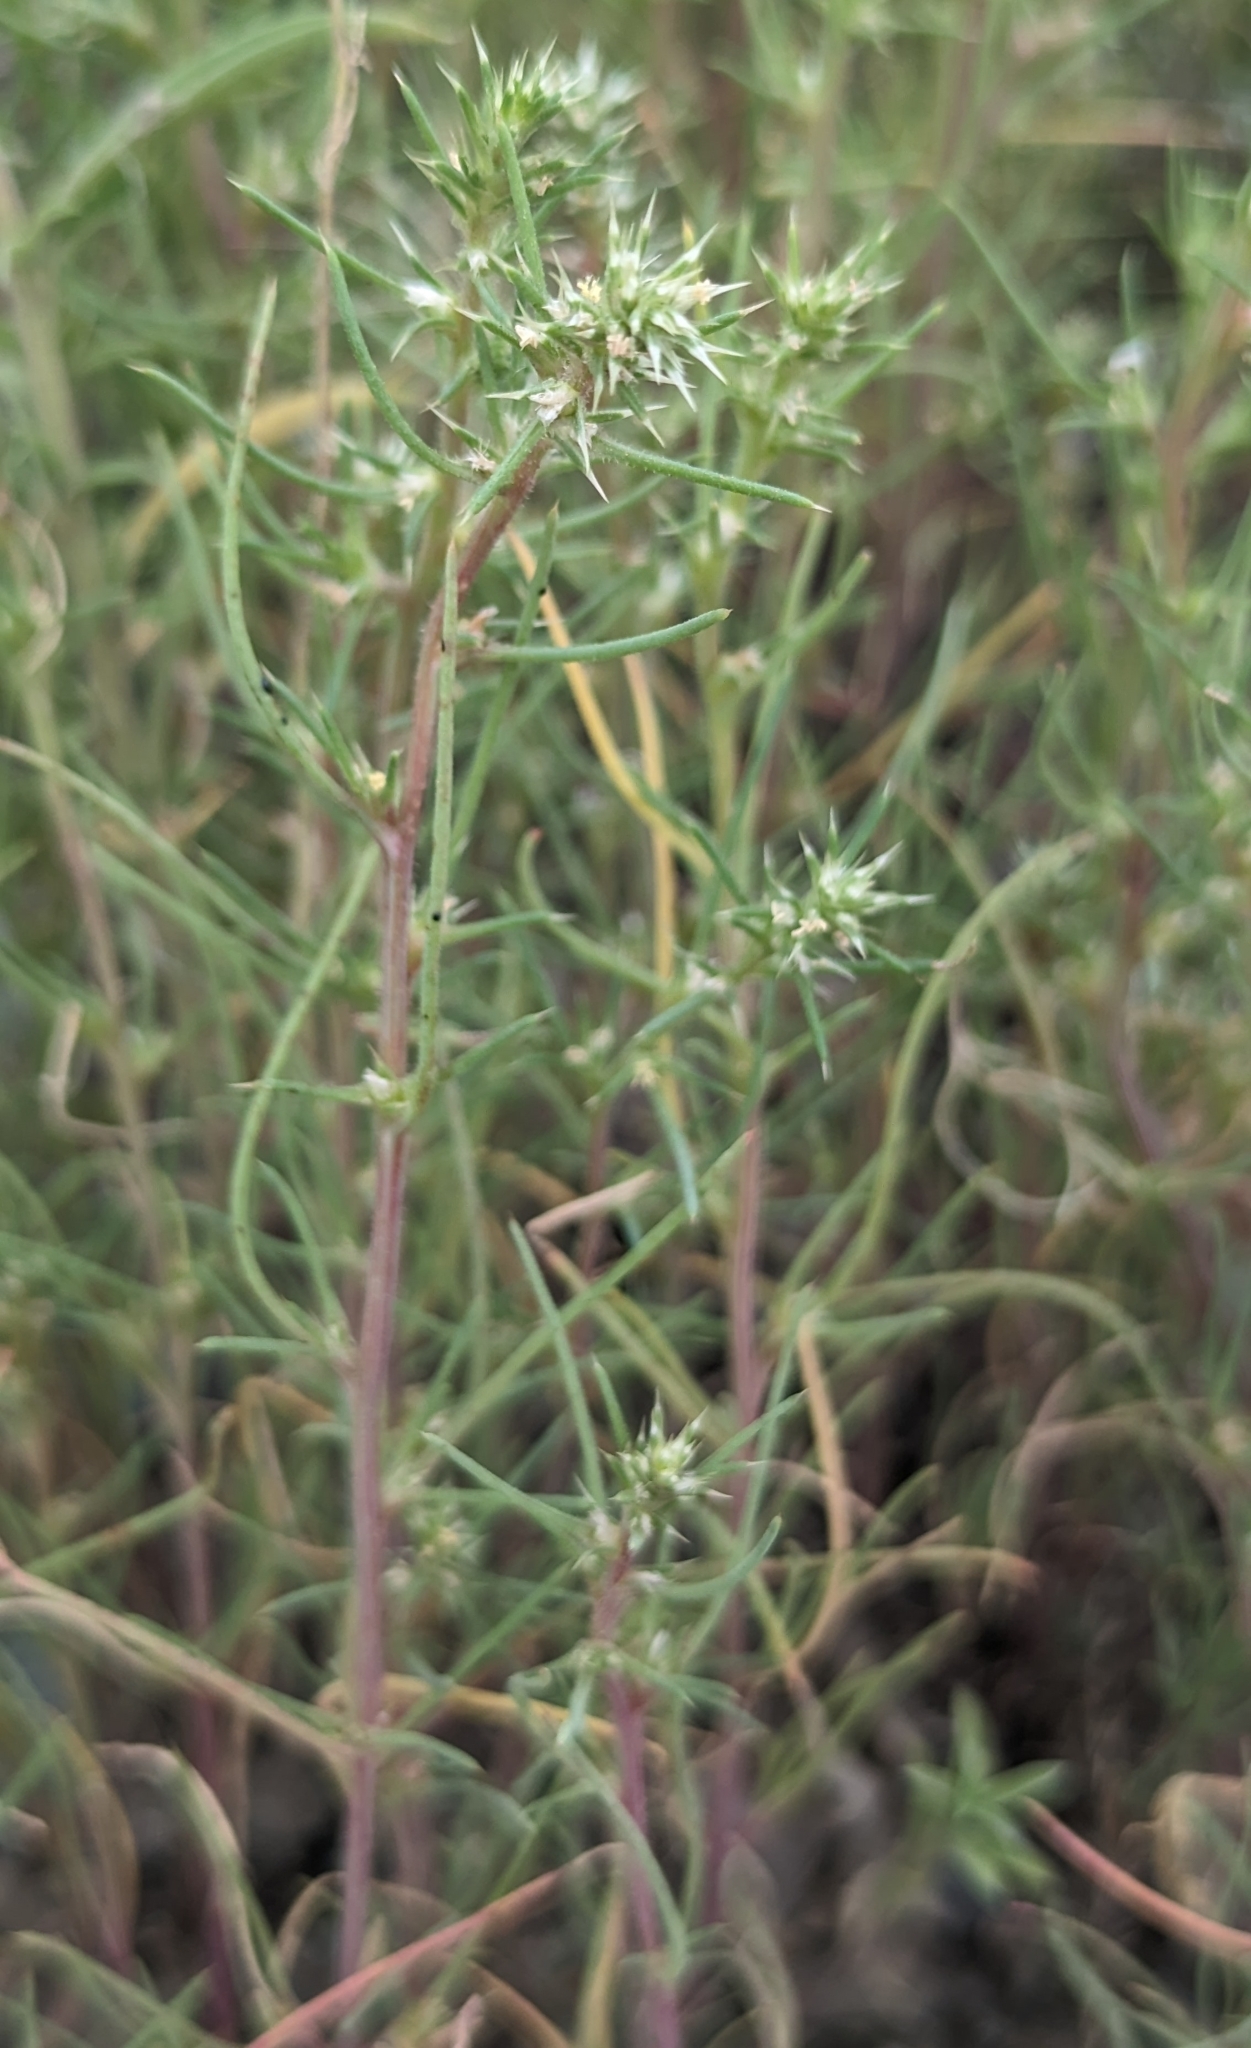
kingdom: Plantae
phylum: Tracheophyta
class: Magnoliopsida
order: Caryophyllales
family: Amaranthaceae
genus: Salsola
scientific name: Salsola tragus
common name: Prickly russian thistle
